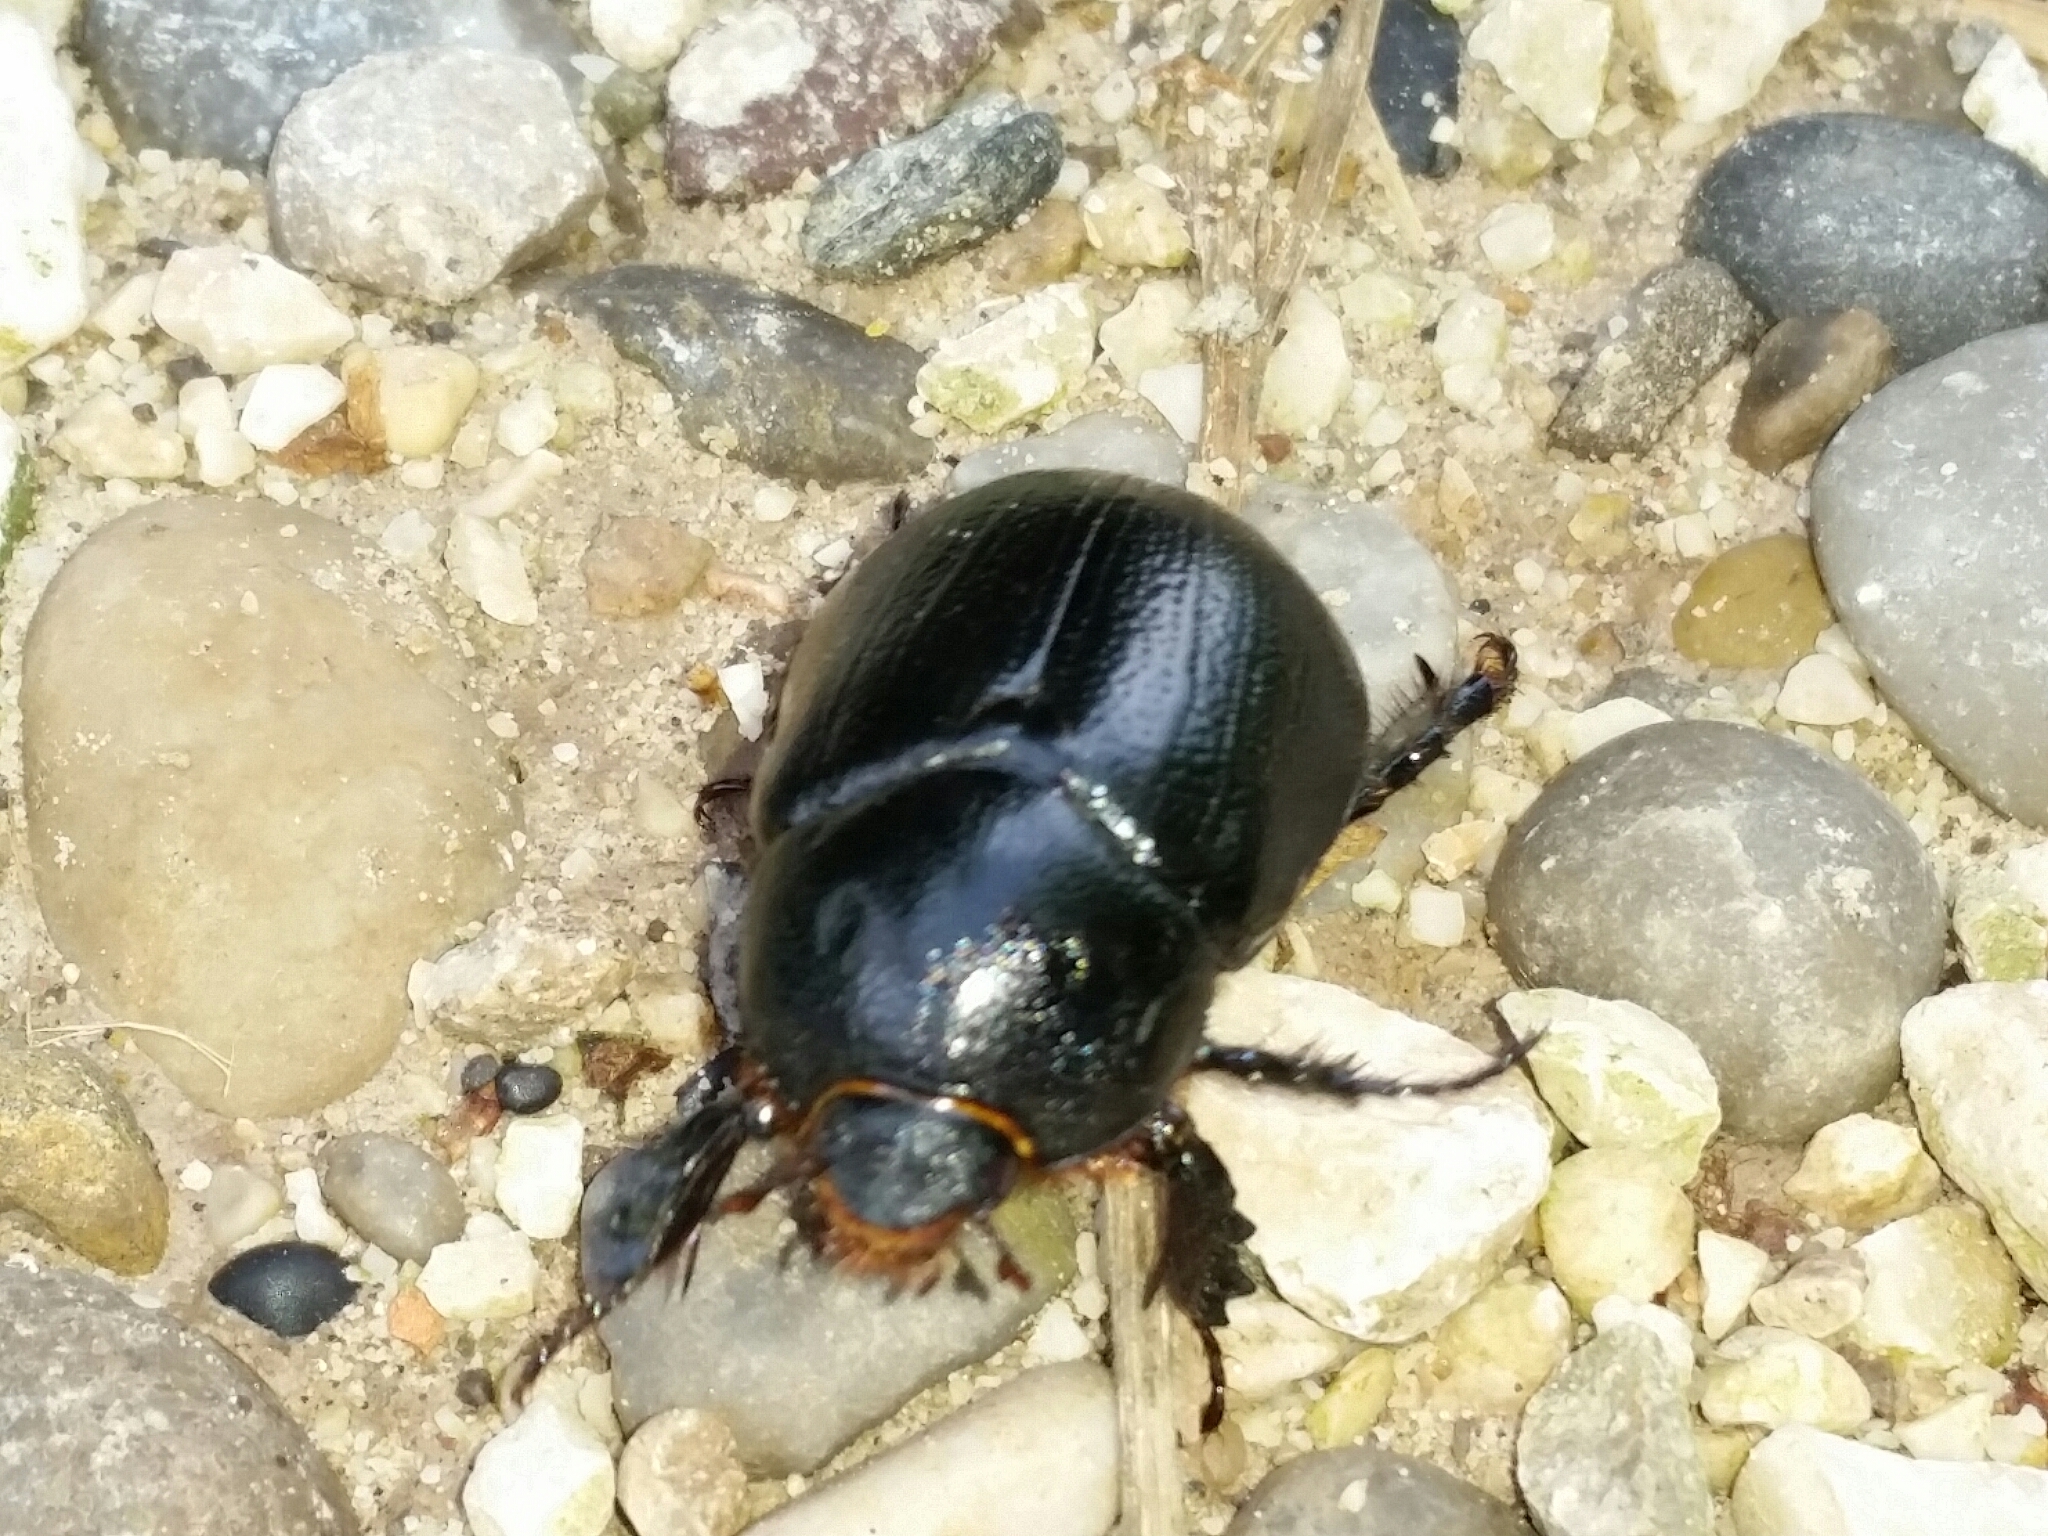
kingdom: Animalia
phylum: Arthropoda
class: Insecta
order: Coleoptera
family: Scarabaeidae
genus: Pentodon
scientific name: Pentodon bidens
